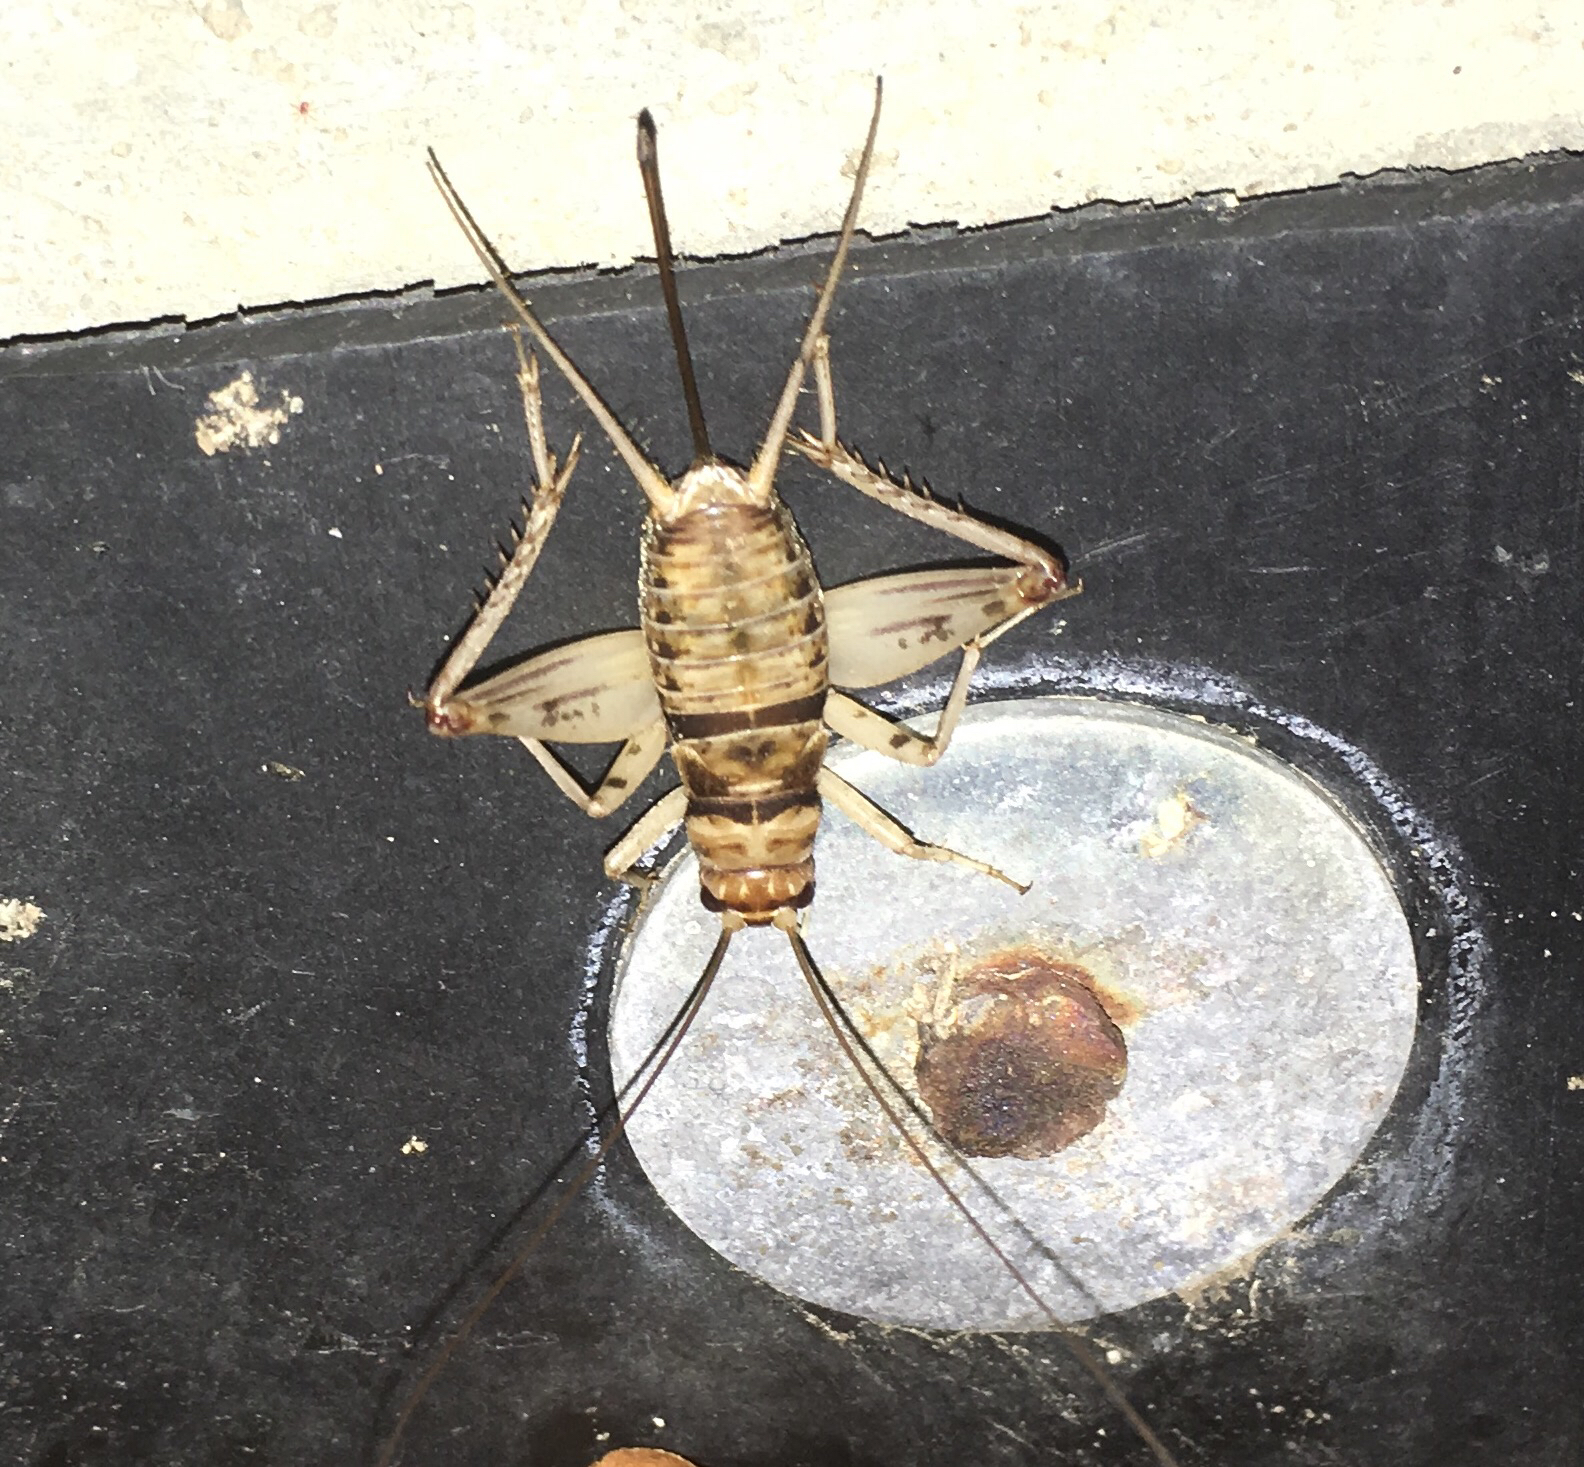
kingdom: Animalia
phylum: Arthropoda
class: Insecta
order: Orthoptera
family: Gryllidae
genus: Gryllodes
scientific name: Gryllodes sigillatus
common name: Tropical house cricket
